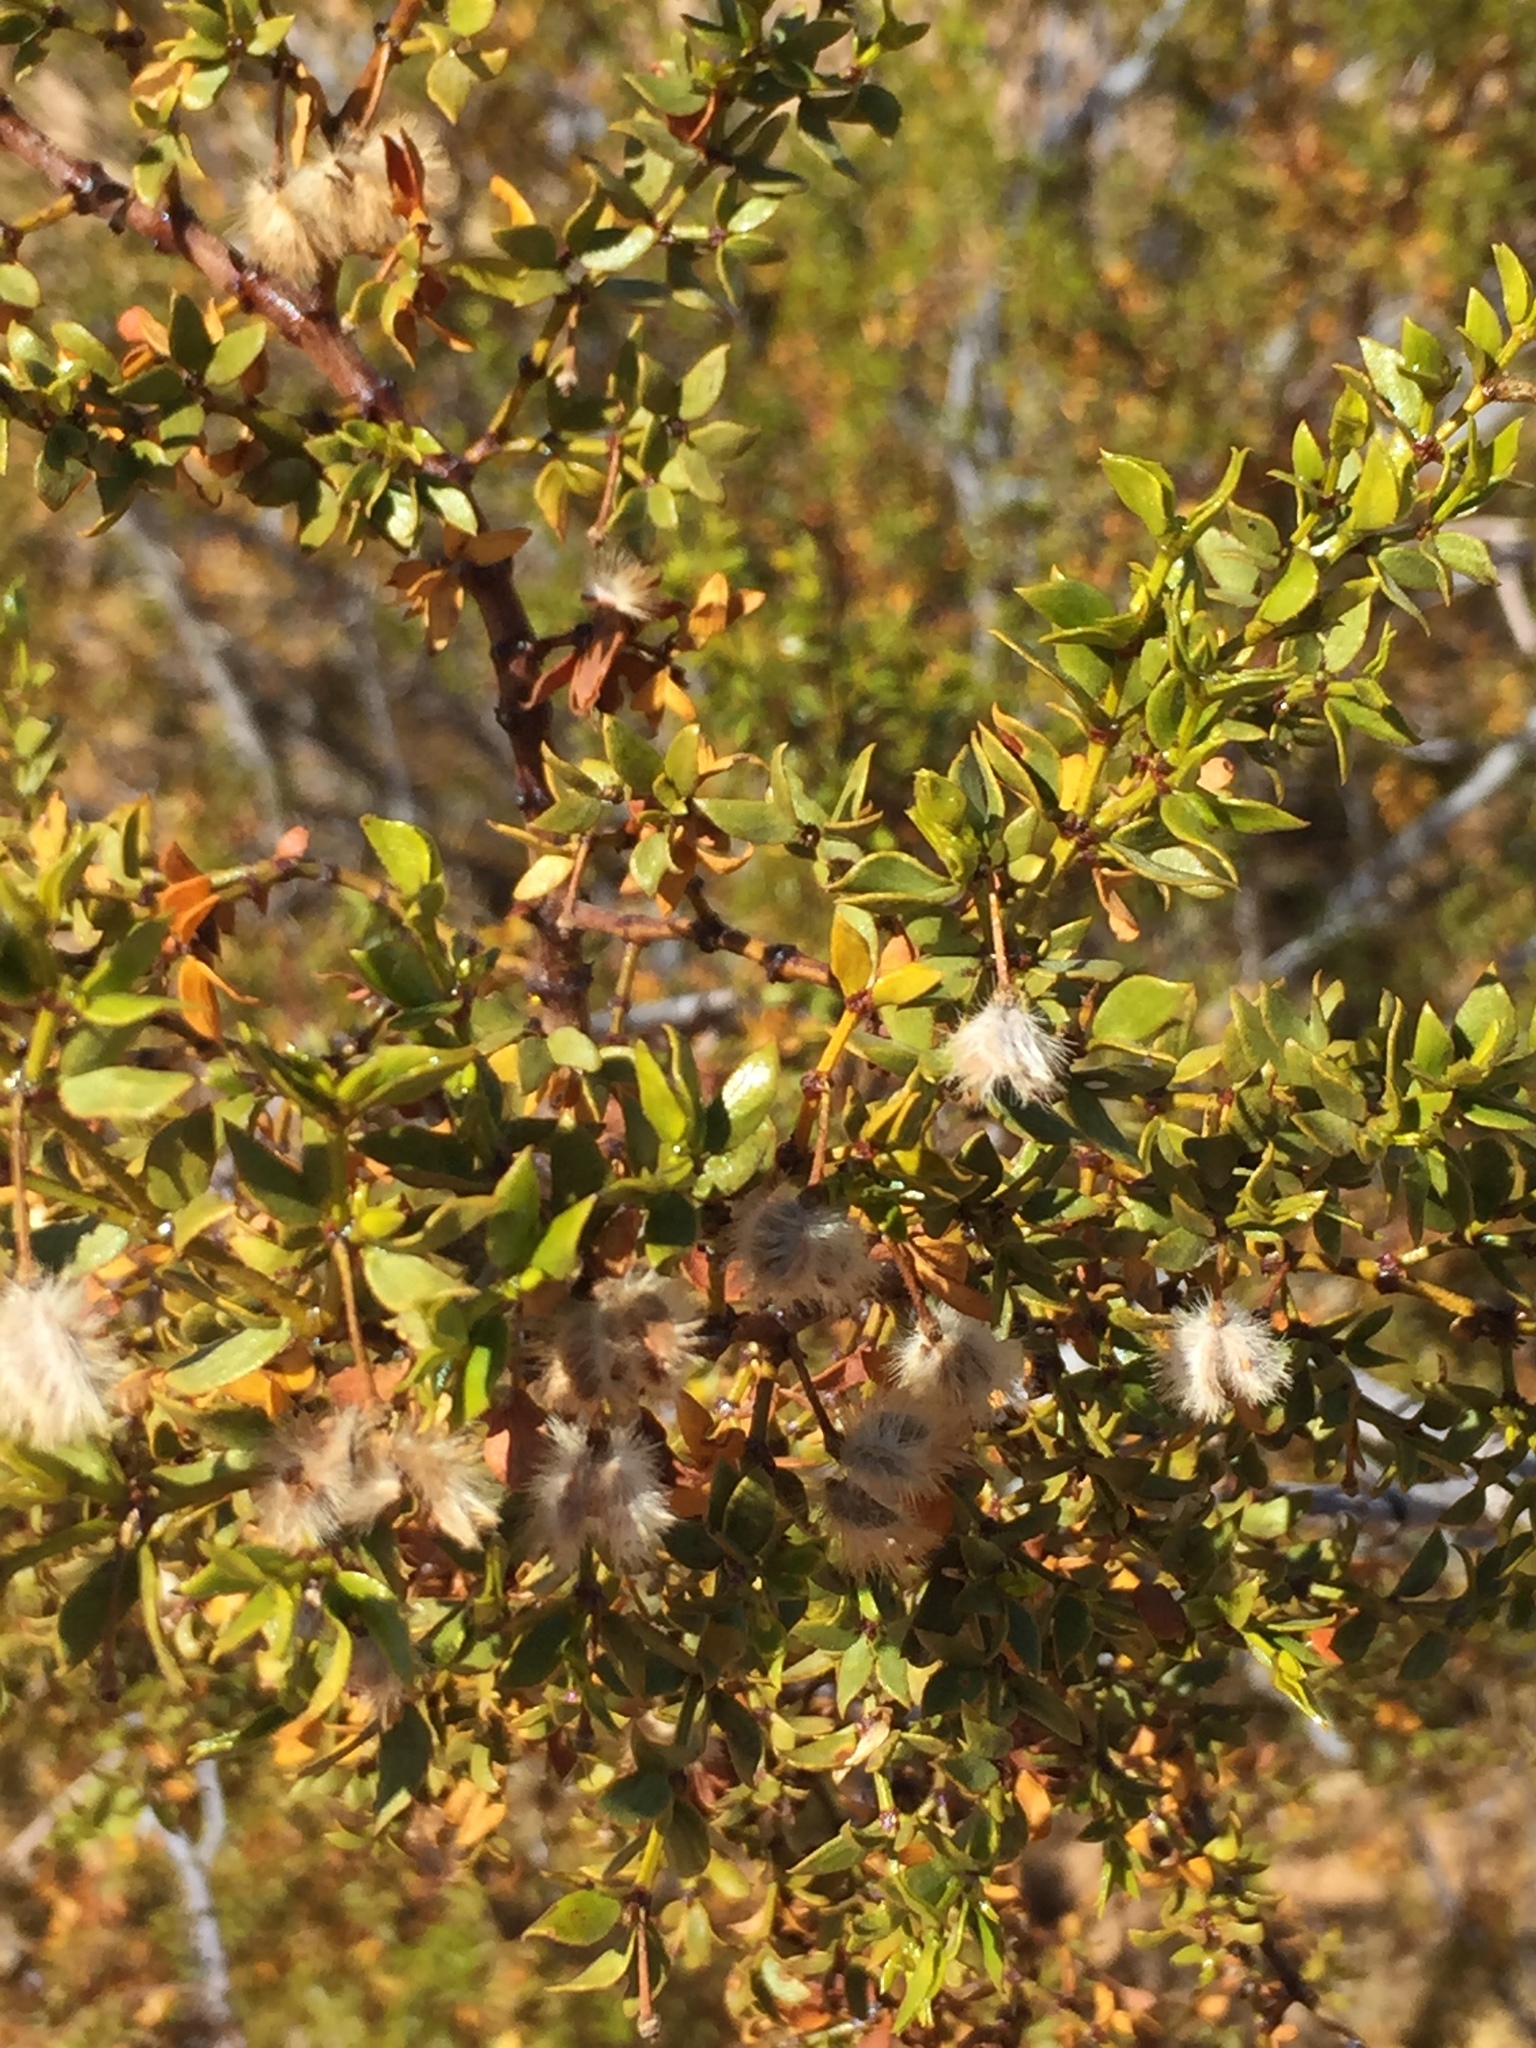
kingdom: Plantae
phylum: Tracheophyta
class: Magnoliopsida
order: Zygophyllales
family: Zygophyllaceae
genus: Larrea
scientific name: Larrea tridentata
